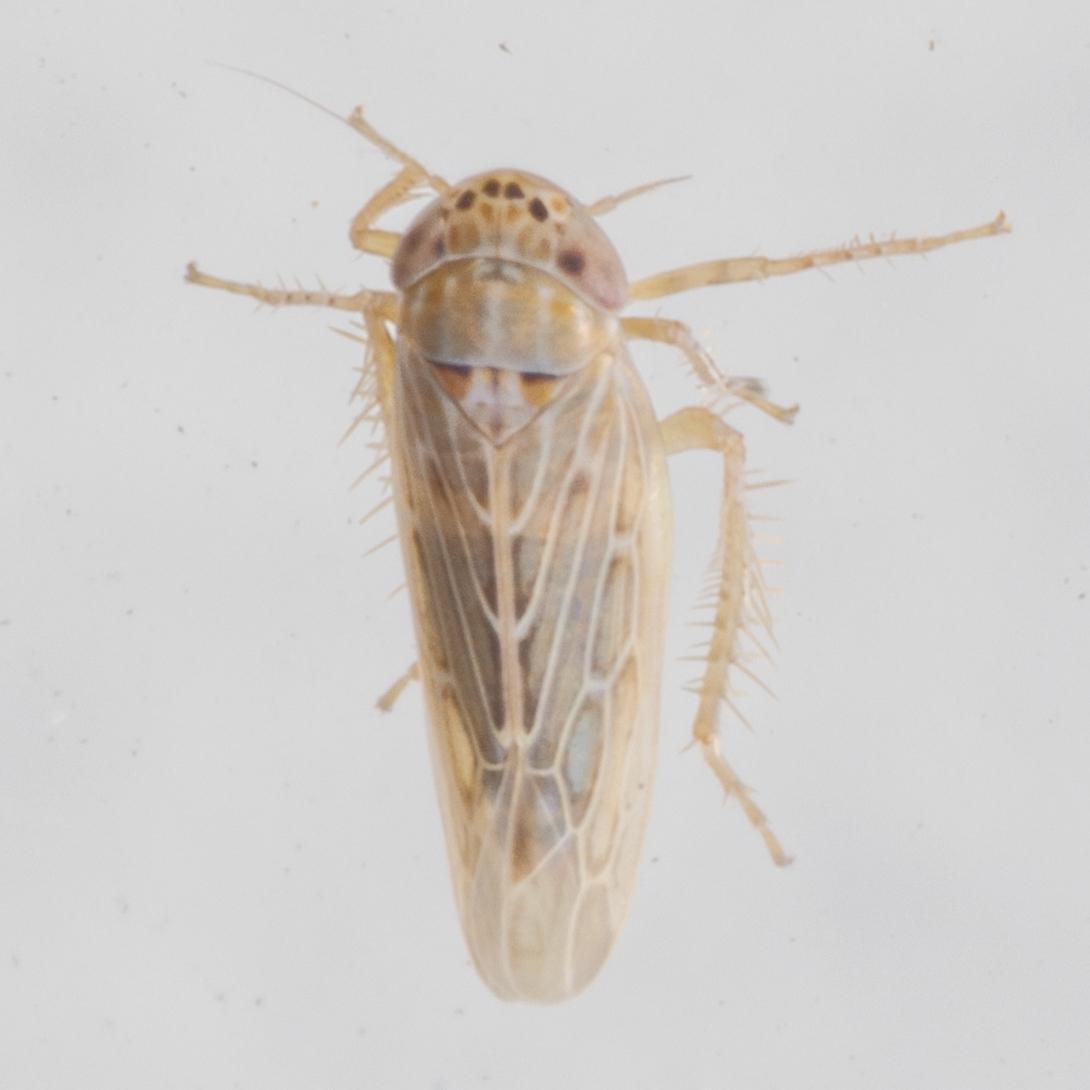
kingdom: Animalia
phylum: Arthropoda
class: Insecta
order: Hemiptera
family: Cicadellidae
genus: Graminella
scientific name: Graminella sonora
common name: Lesser lawn leafhopper
